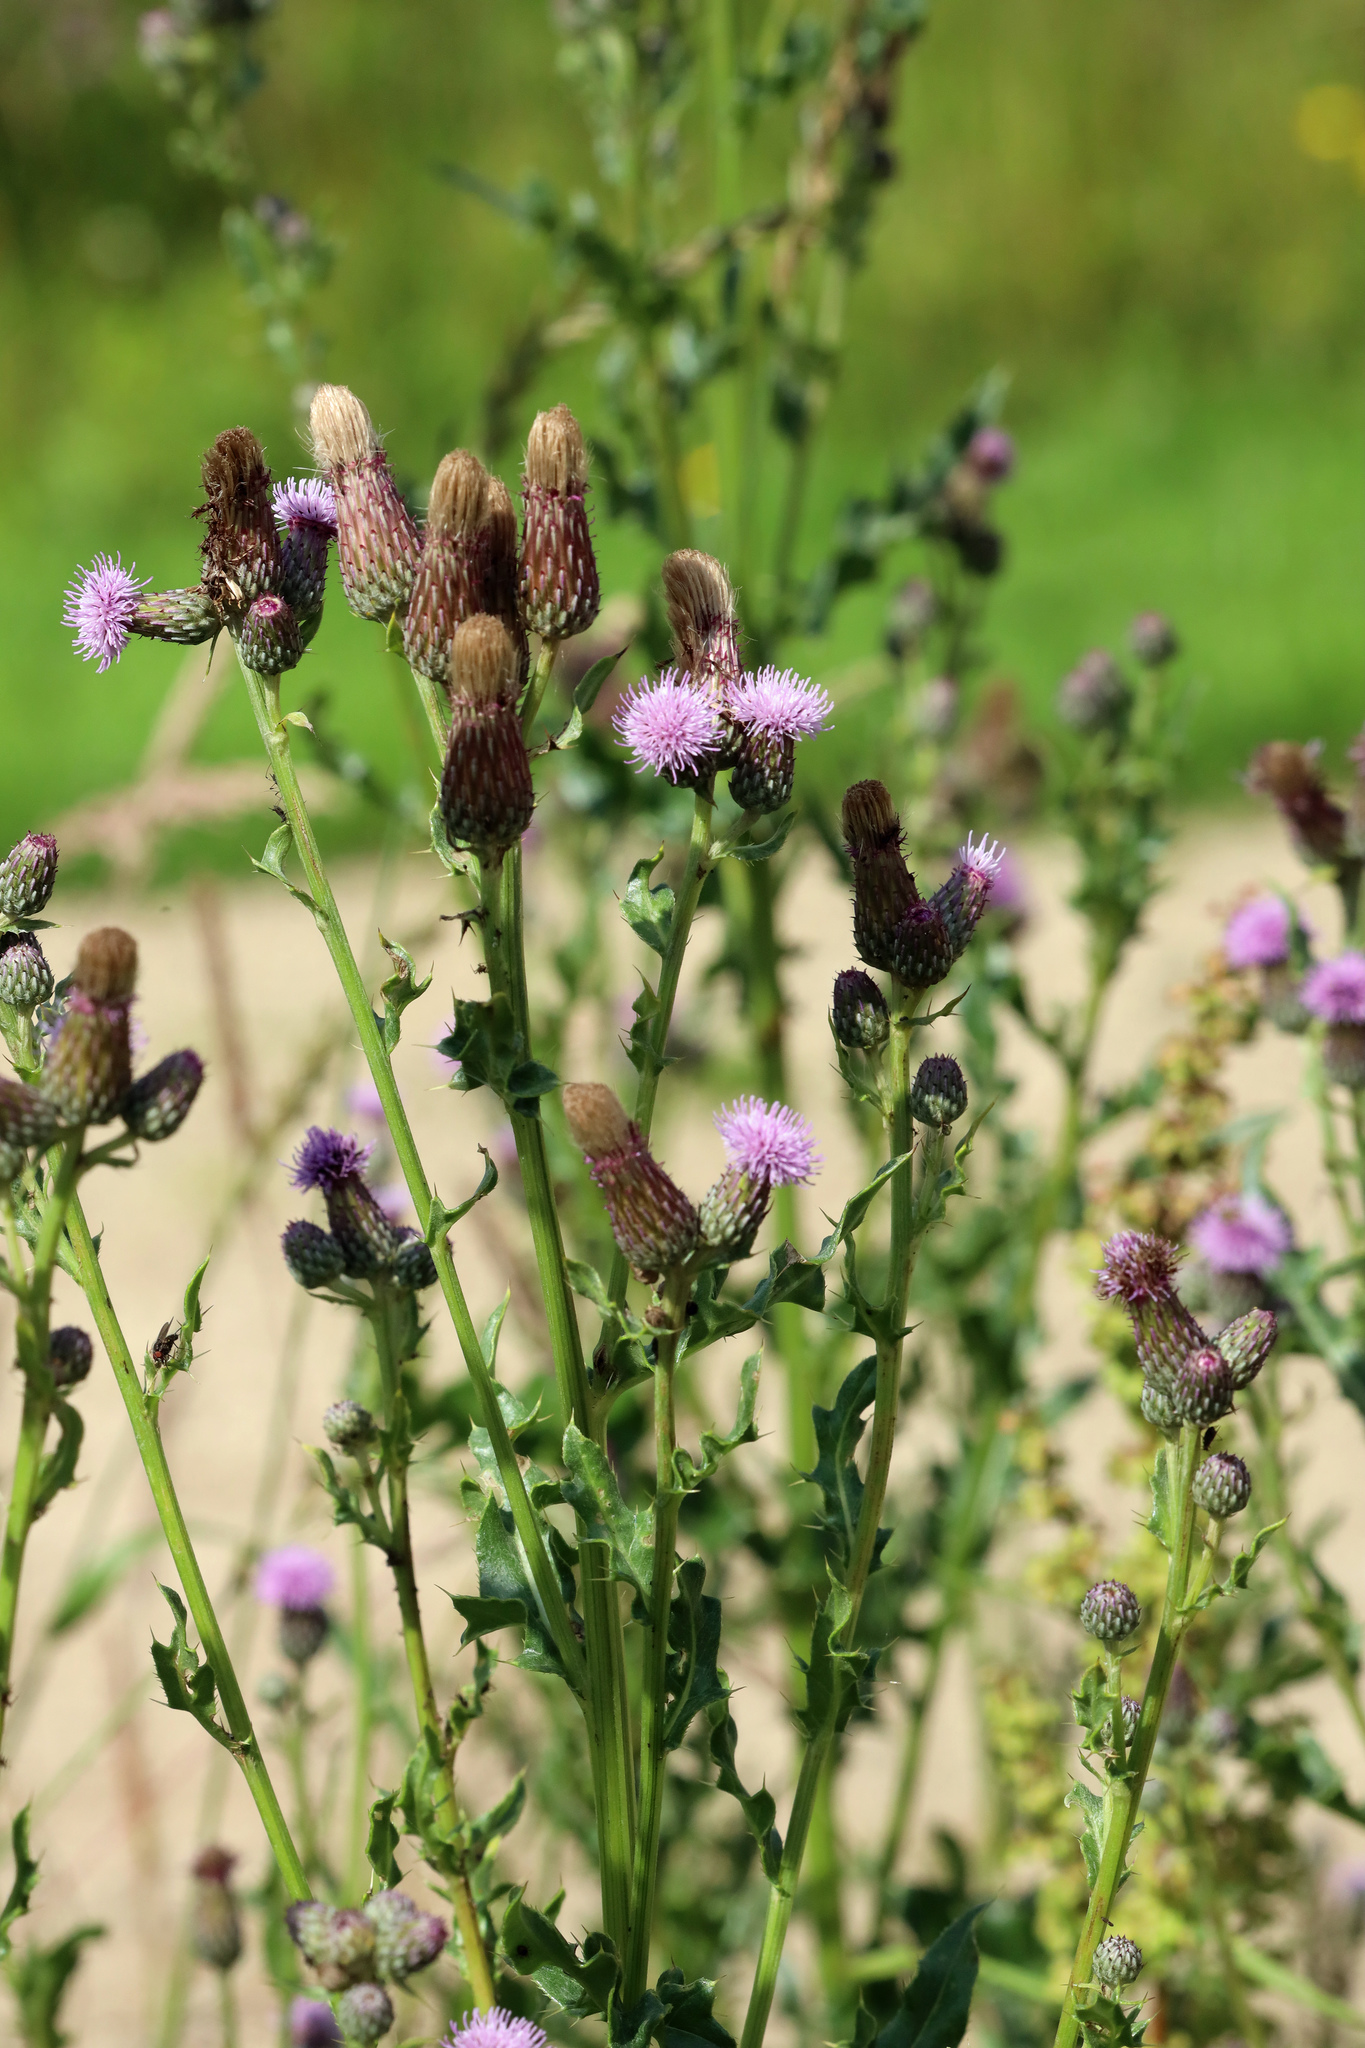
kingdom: Plantae
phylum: Tracheophyta
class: Magnoliopsida
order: Asterales
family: Asteraceae
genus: Cirsium
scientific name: Cirsium arvense
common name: Creeping thistle
